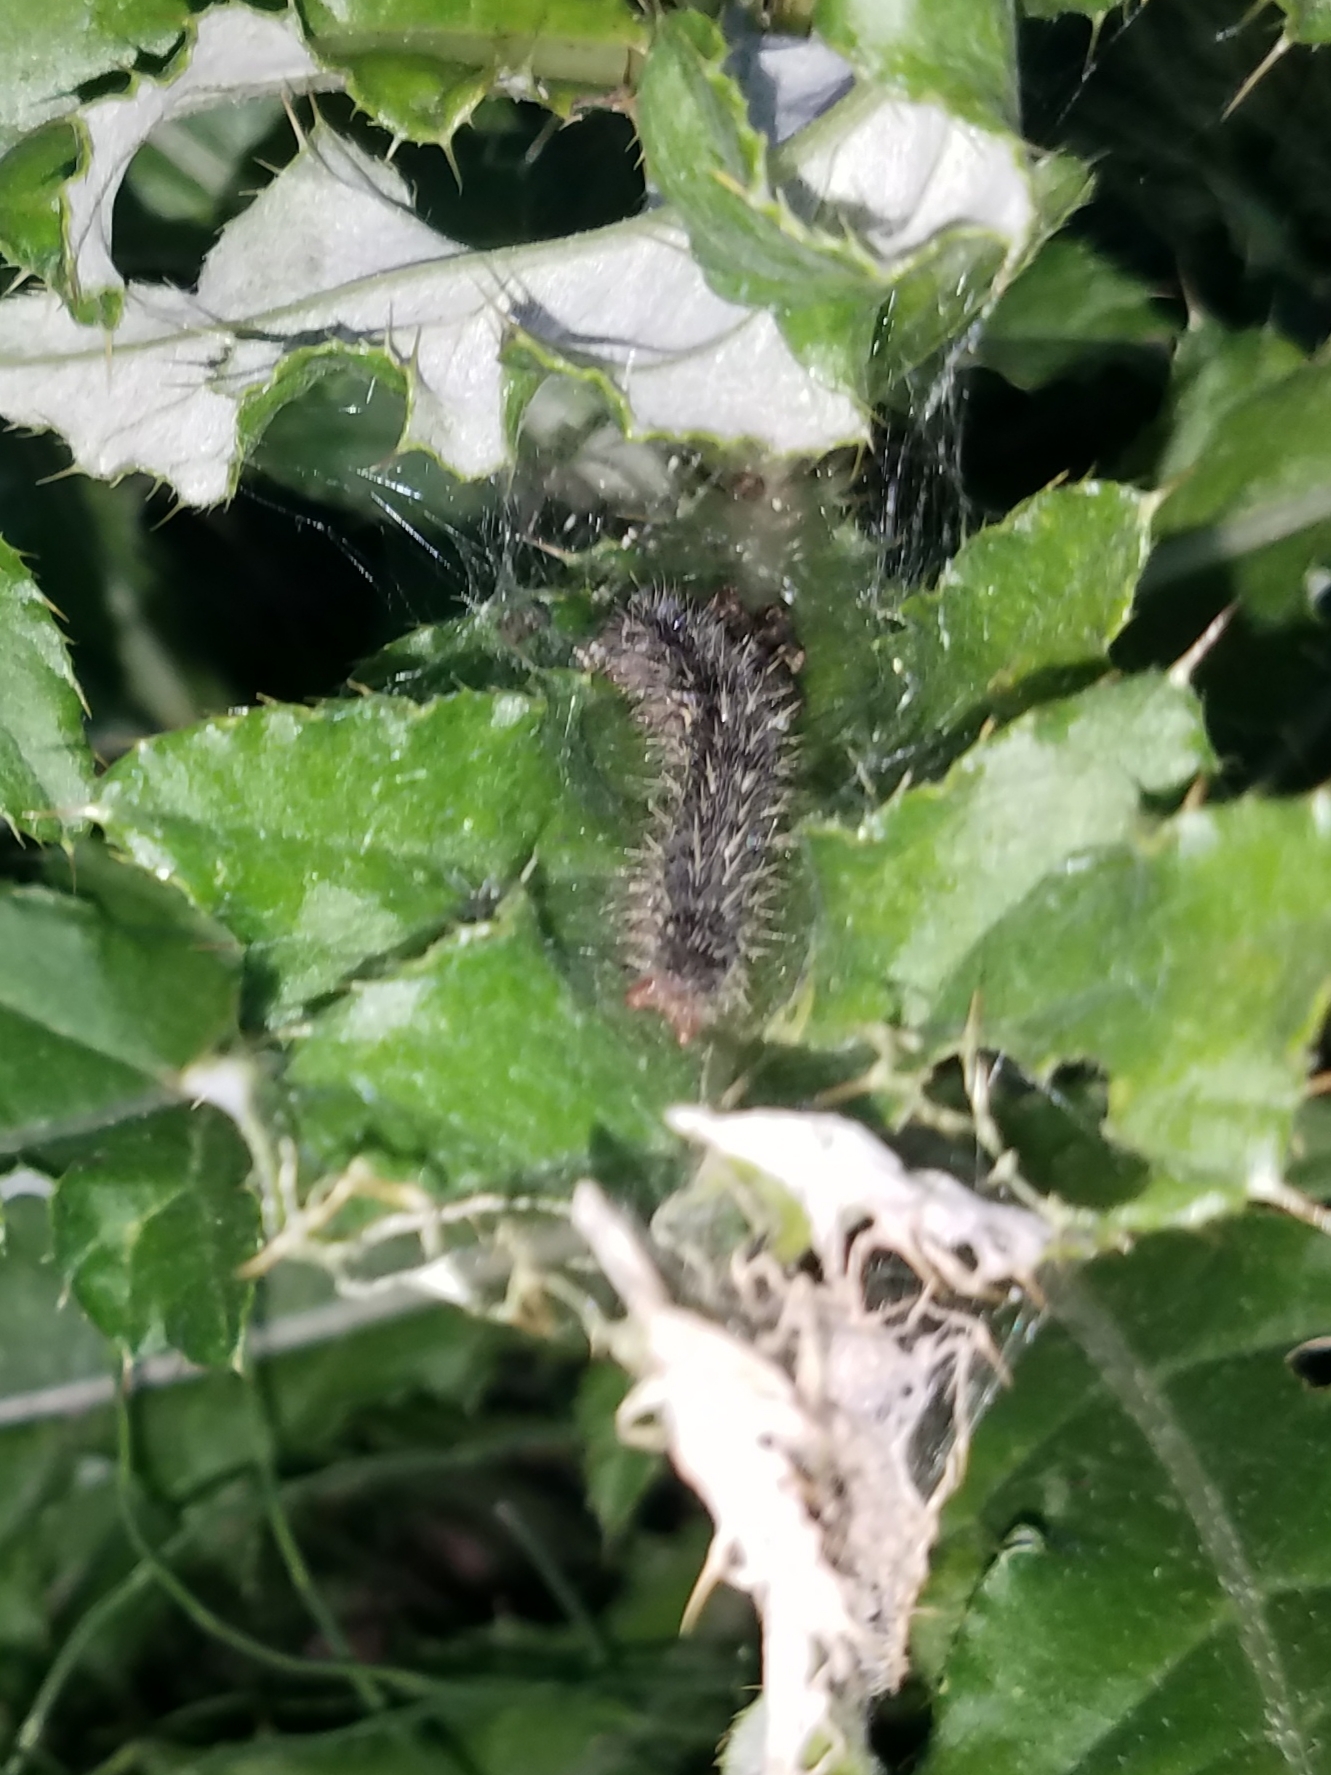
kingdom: Animalia
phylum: Arthropoda
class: Insecta
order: Lepidoptera
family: Nymphalidae
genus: Vanessa
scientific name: Vanessa cardui
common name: Painted lady
